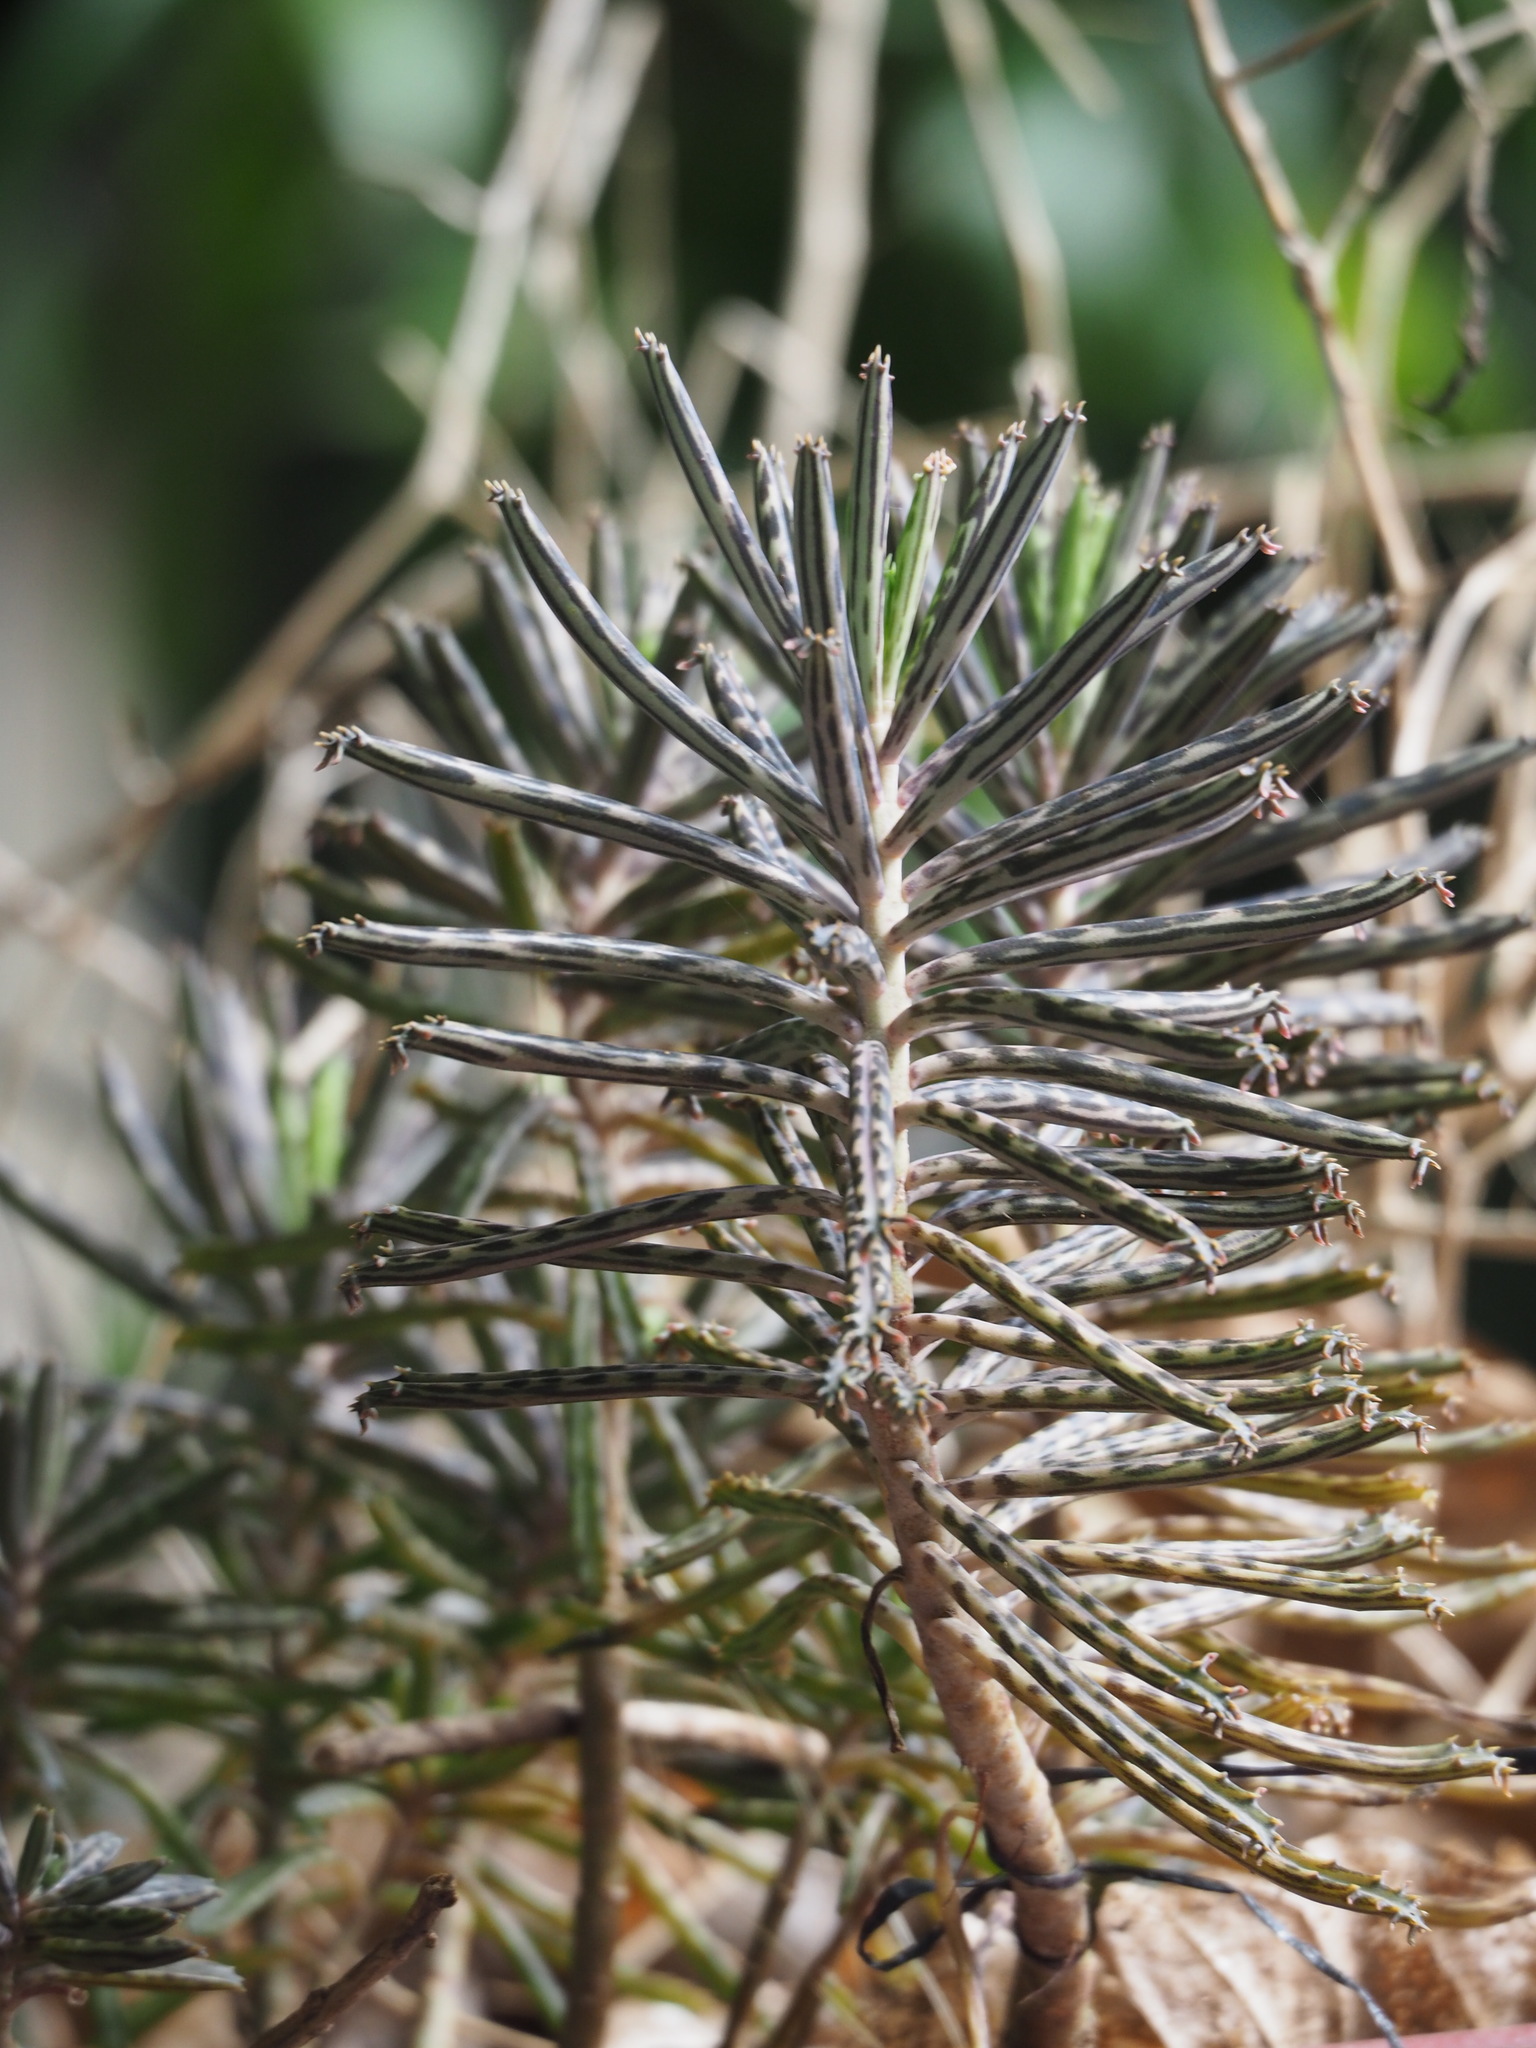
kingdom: Plantae
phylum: Tracheophyta
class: Magnoliopsida
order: Saxifragales
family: Crassulaceae
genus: Kalanchoe
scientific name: Kalanchoe delagoensis
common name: Chandelier plant
